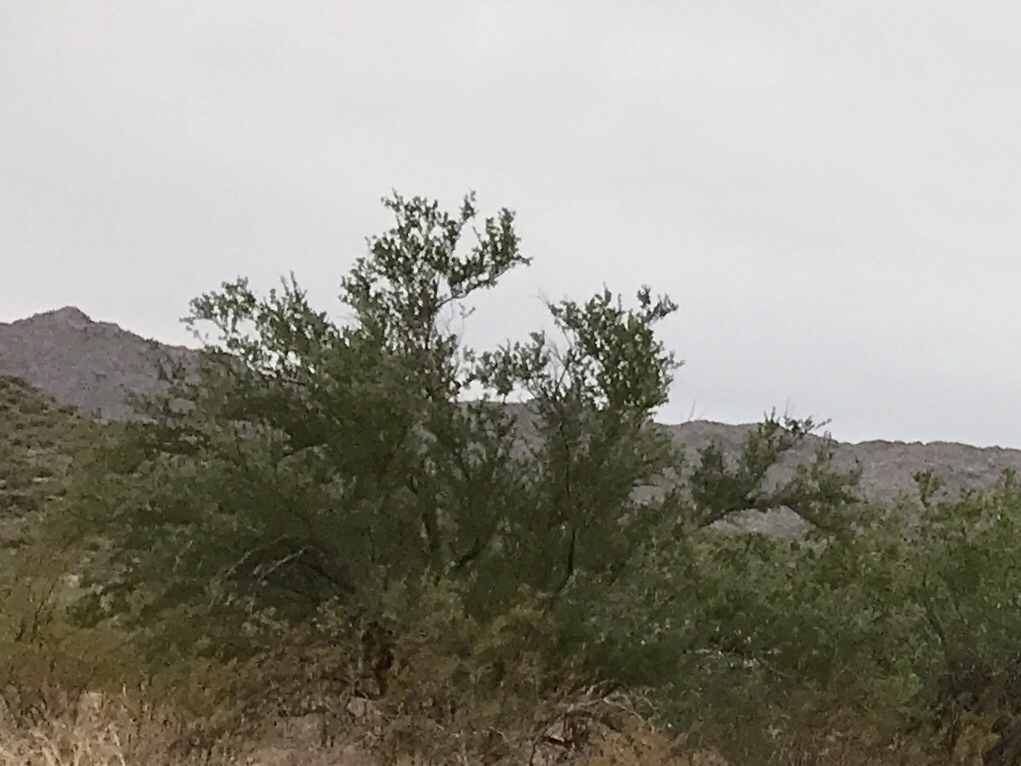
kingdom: Plantae
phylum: Tracheophyta
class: Magnoliopsida
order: Fabales
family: Fabaceae
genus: Olneya
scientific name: Olneya tesota
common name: Desert ironwood
